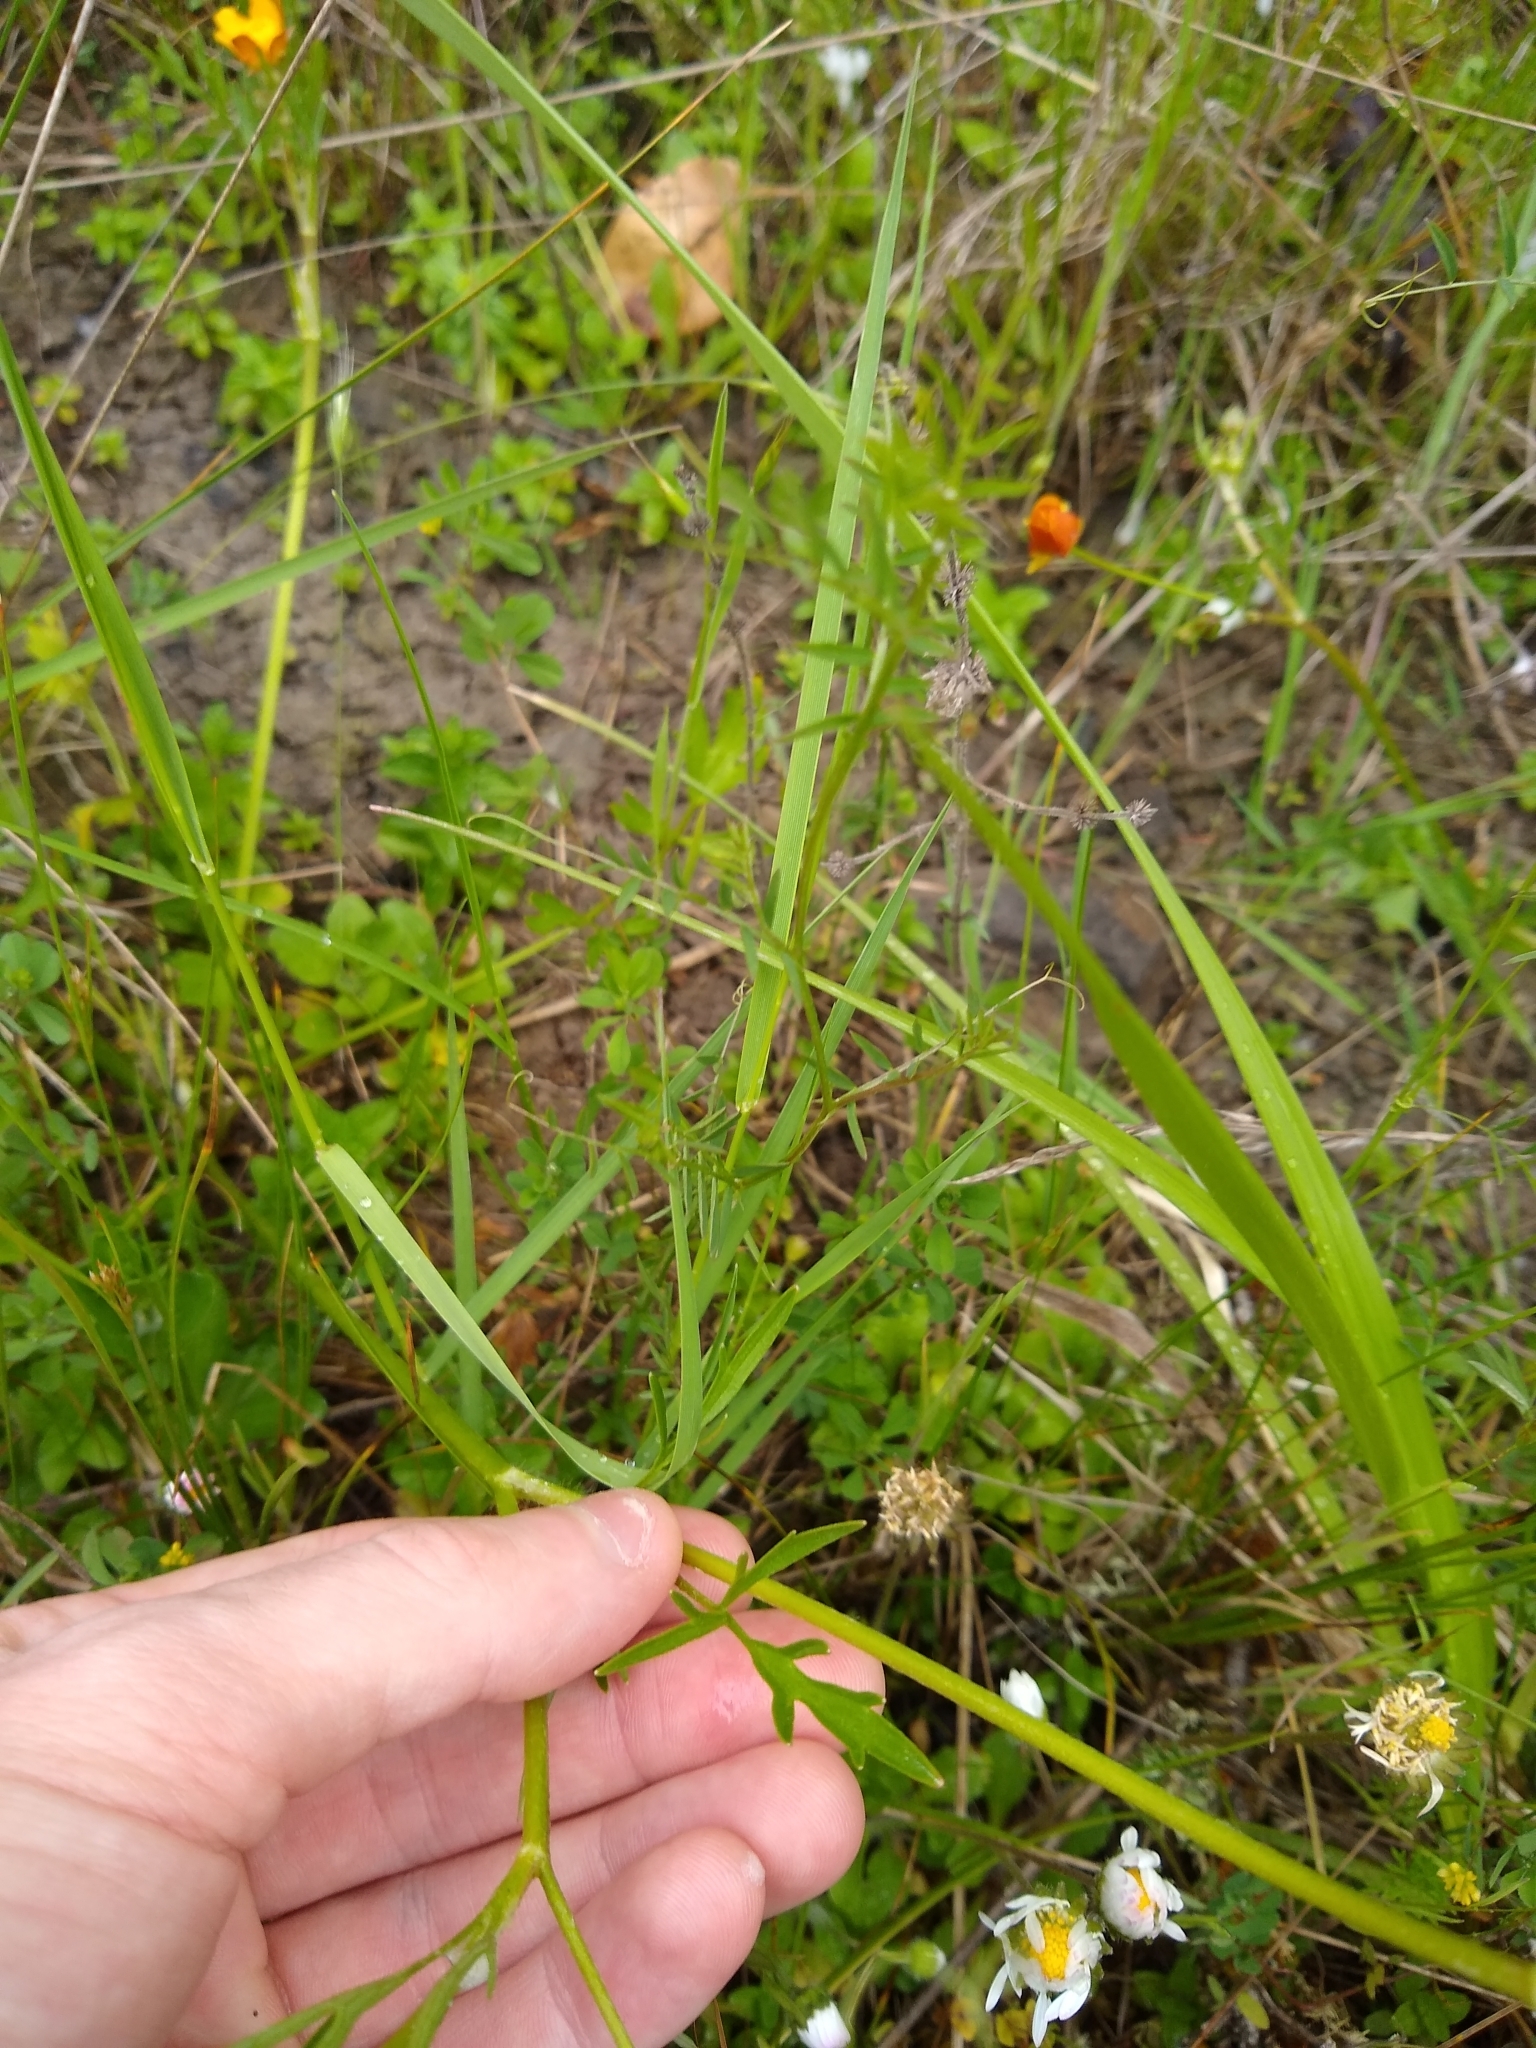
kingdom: Plantae
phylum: Tracheophyta
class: Magnoliopsida
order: Ranunculales
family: Ranunculaceae
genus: Ranunculus
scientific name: Ranunculus orthorhynchus
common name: Straight-beak buttercup
